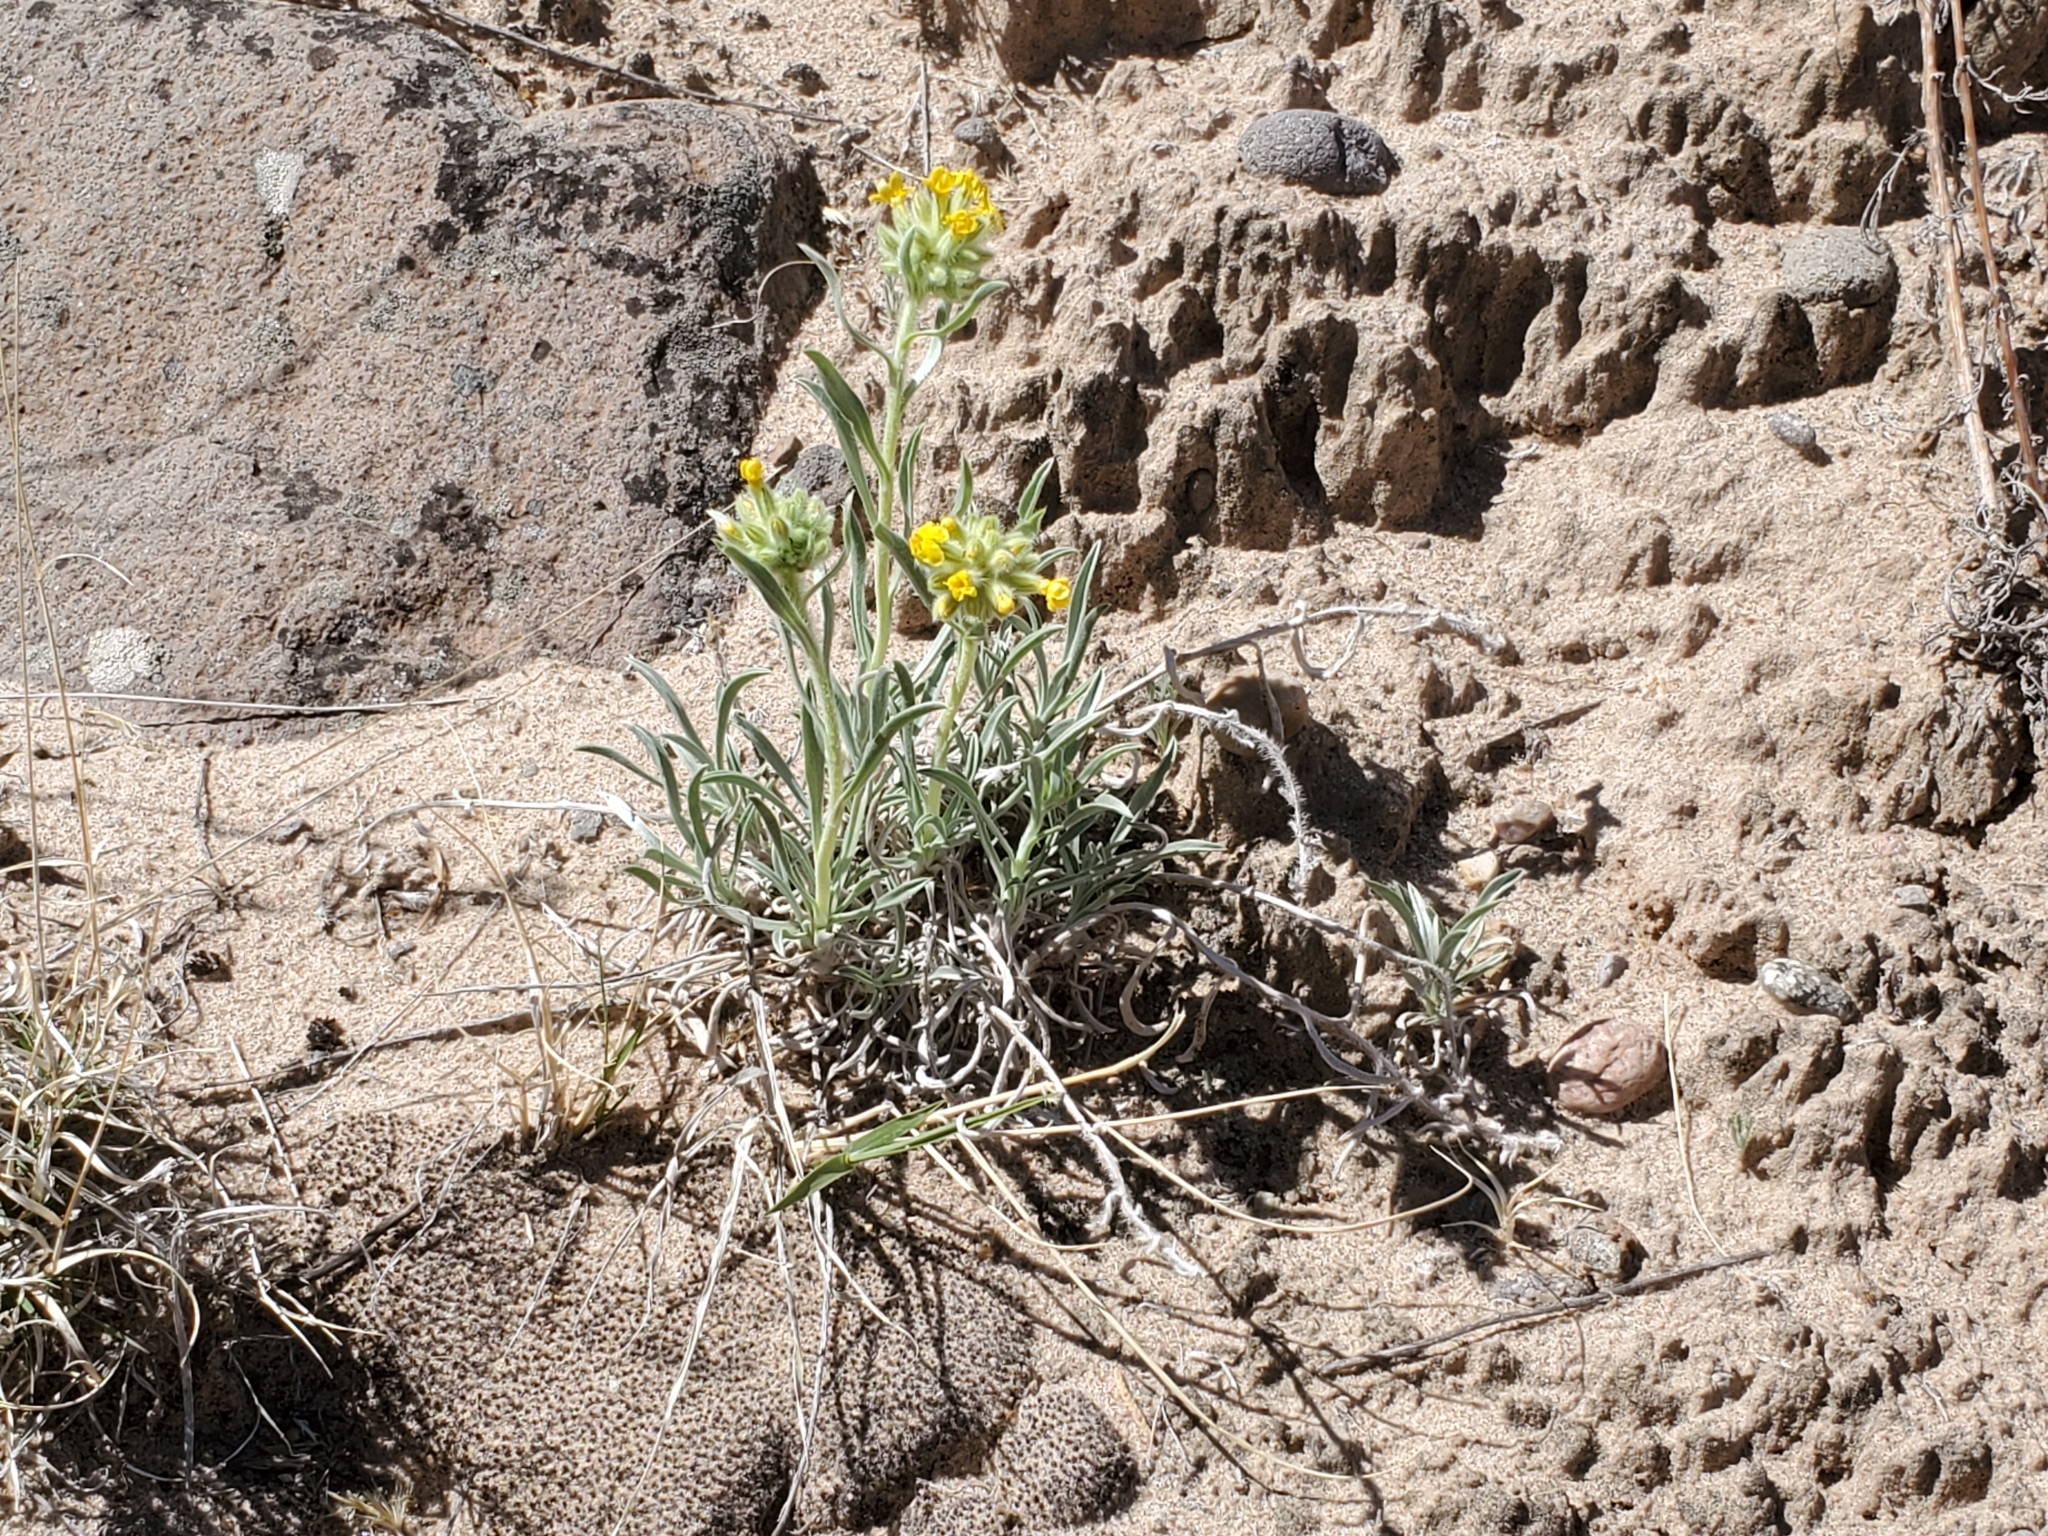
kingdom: Plantae
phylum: Tracheophyta
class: Magnoliopsida
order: Boraginales
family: Boraginaceae
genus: Oreocarya
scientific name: Oreocarya flava
